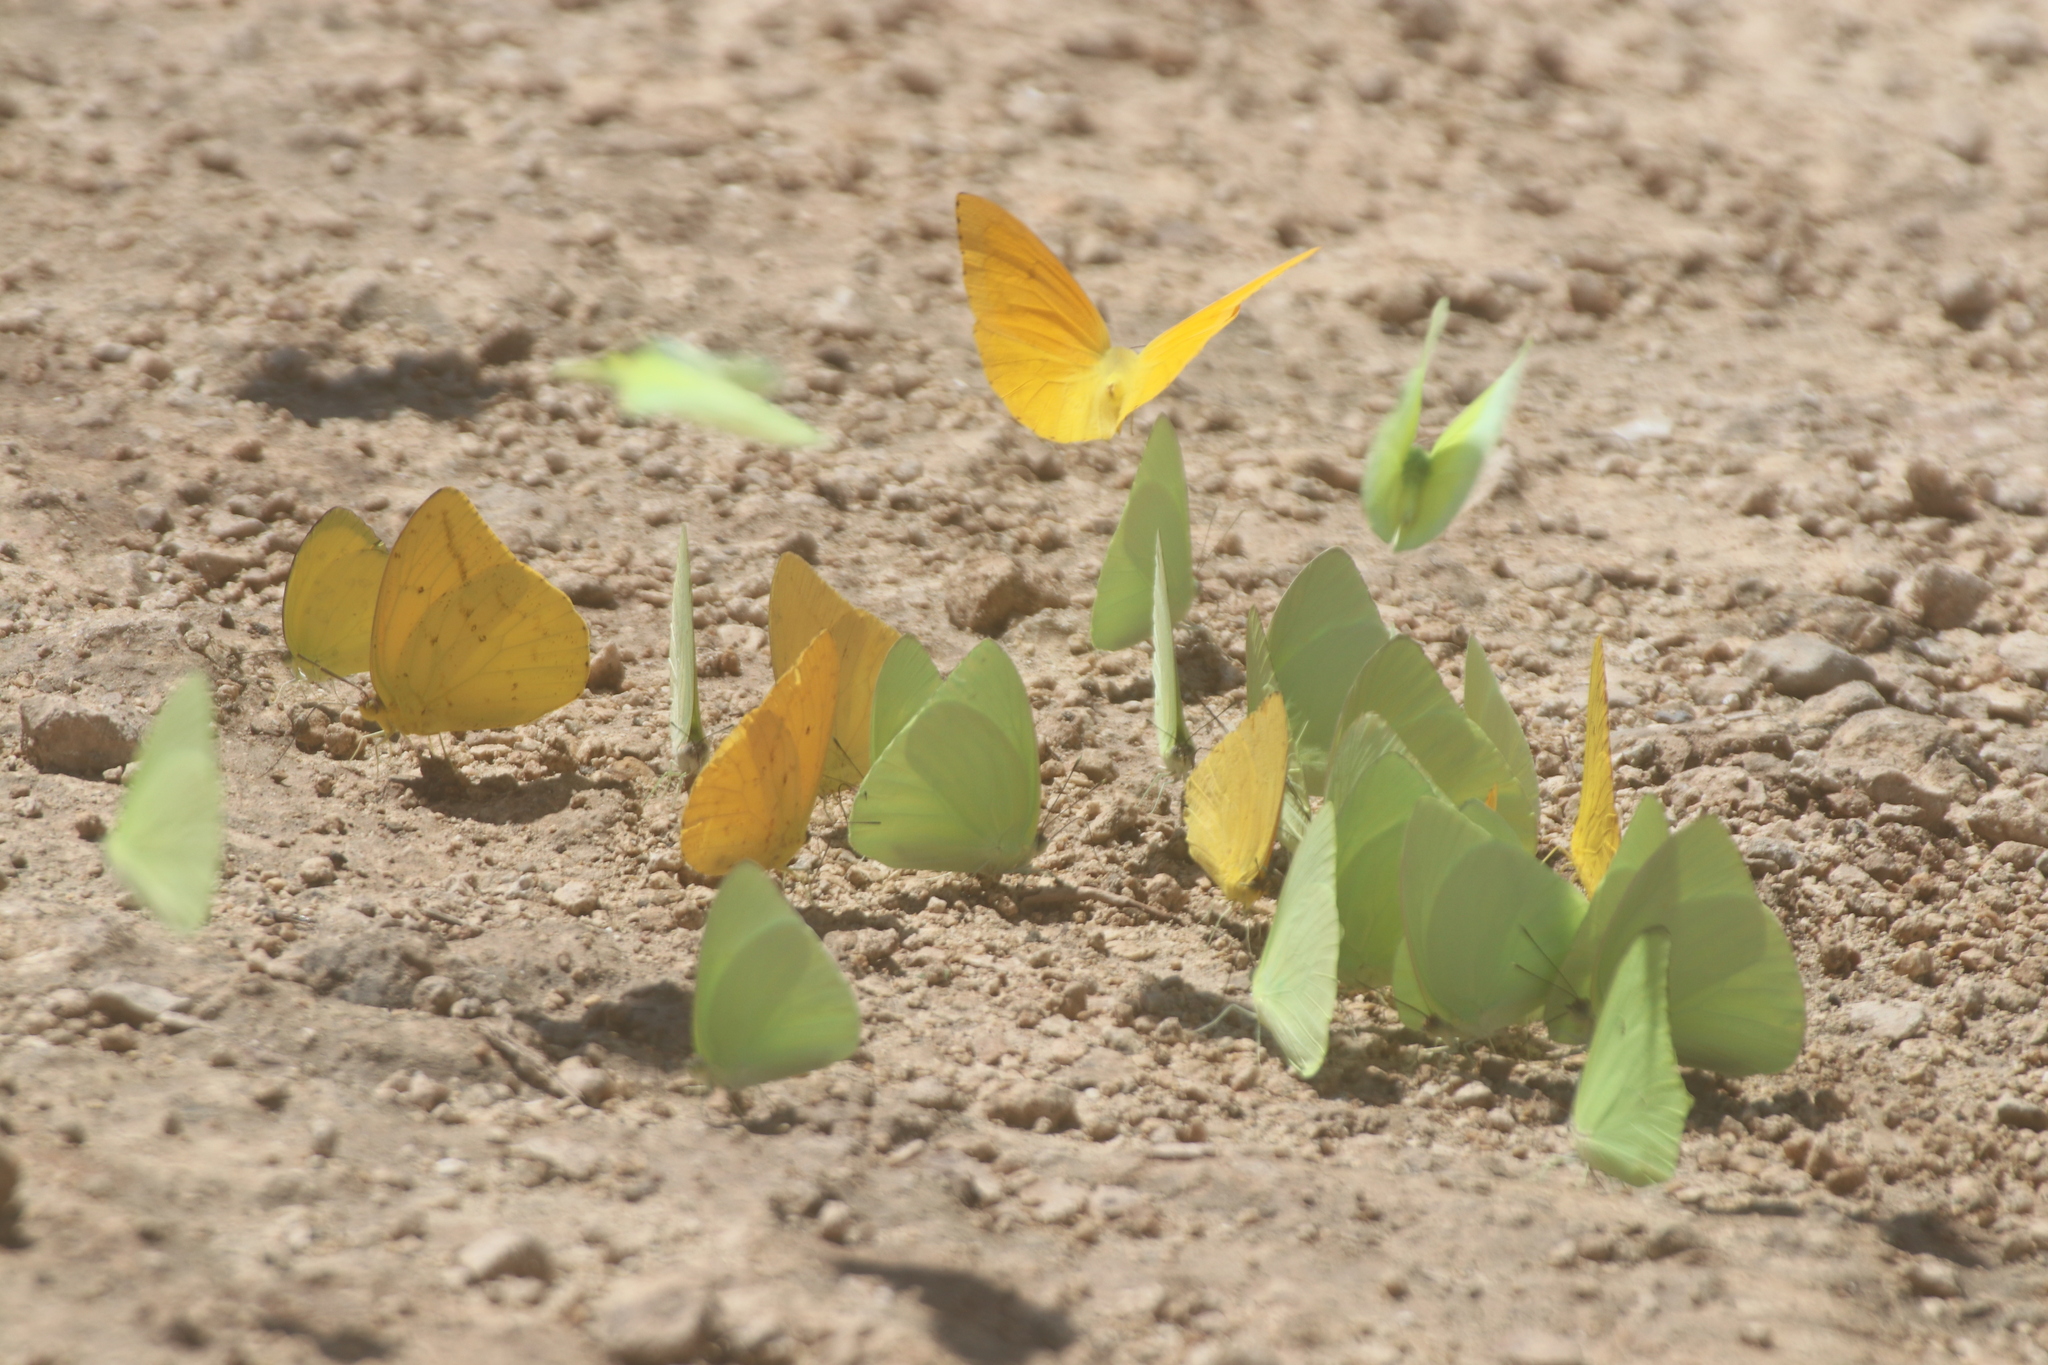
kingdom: Animalia
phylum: Arthropoda
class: Insecta
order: Lepidoptera
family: Pieridae
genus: Phoebis
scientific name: Phoebis argante
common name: Apricot sulphur
